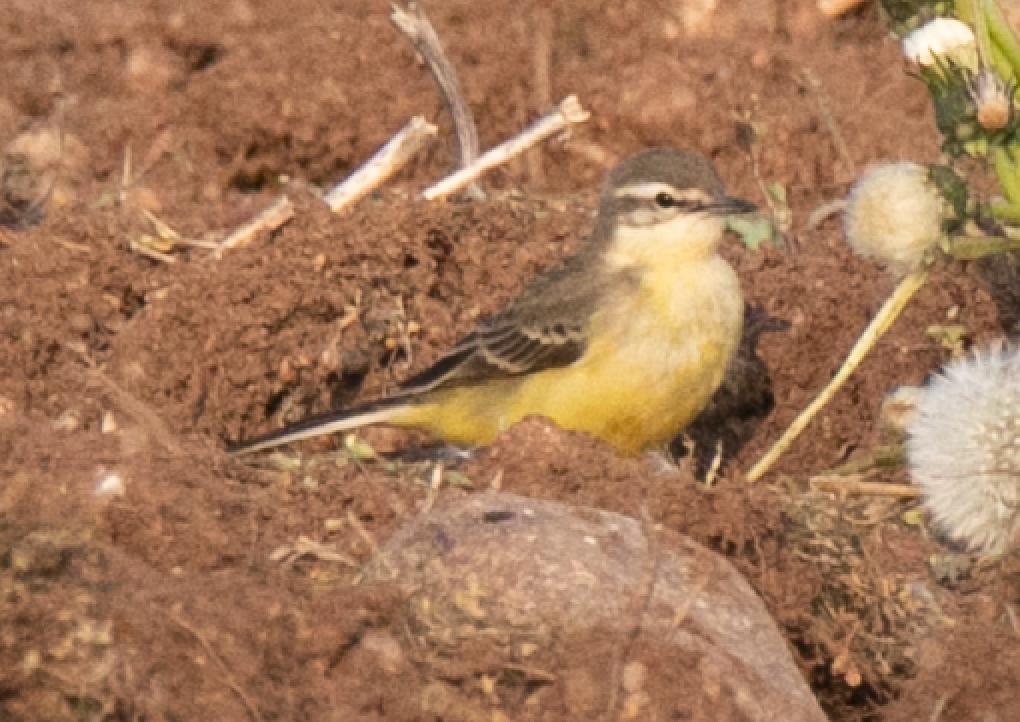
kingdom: Animalia
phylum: Chordata
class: Aves
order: Passeriformes
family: Motacillidae
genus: Motacilla
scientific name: Motacilla flava
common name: Western yellow wagtail
